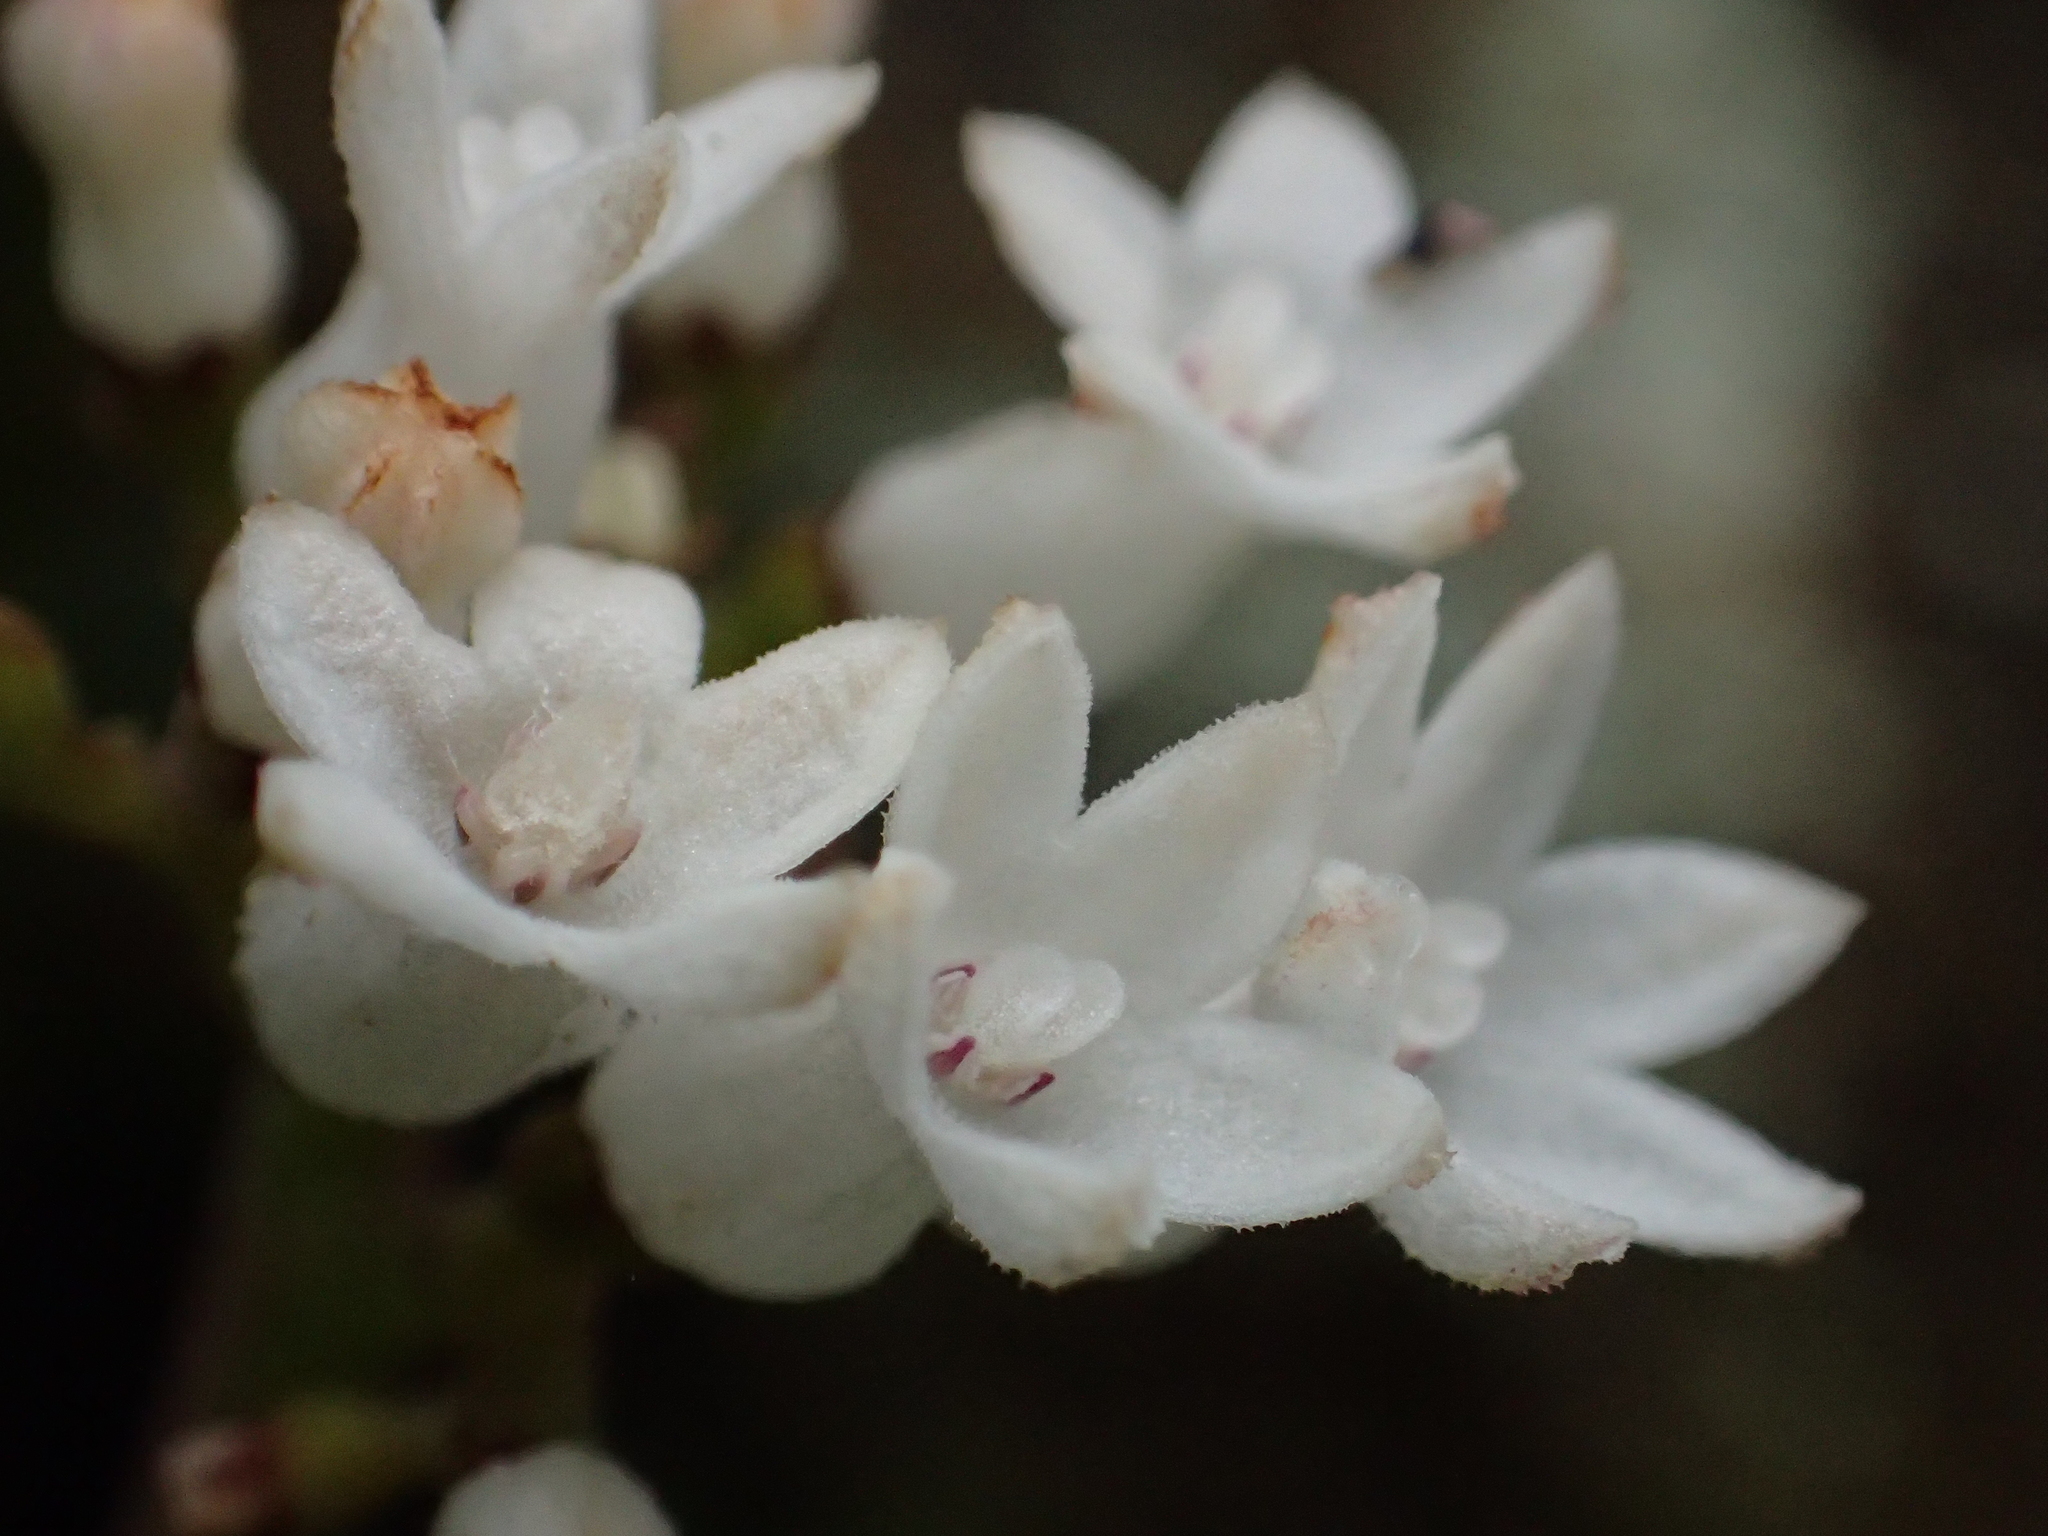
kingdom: Plantae
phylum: Tracheophyta
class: Magnoliopsida
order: Gentianales
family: Rubiaceae
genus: Ophiorrhiza
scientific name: Ophiorrhiza pumila
